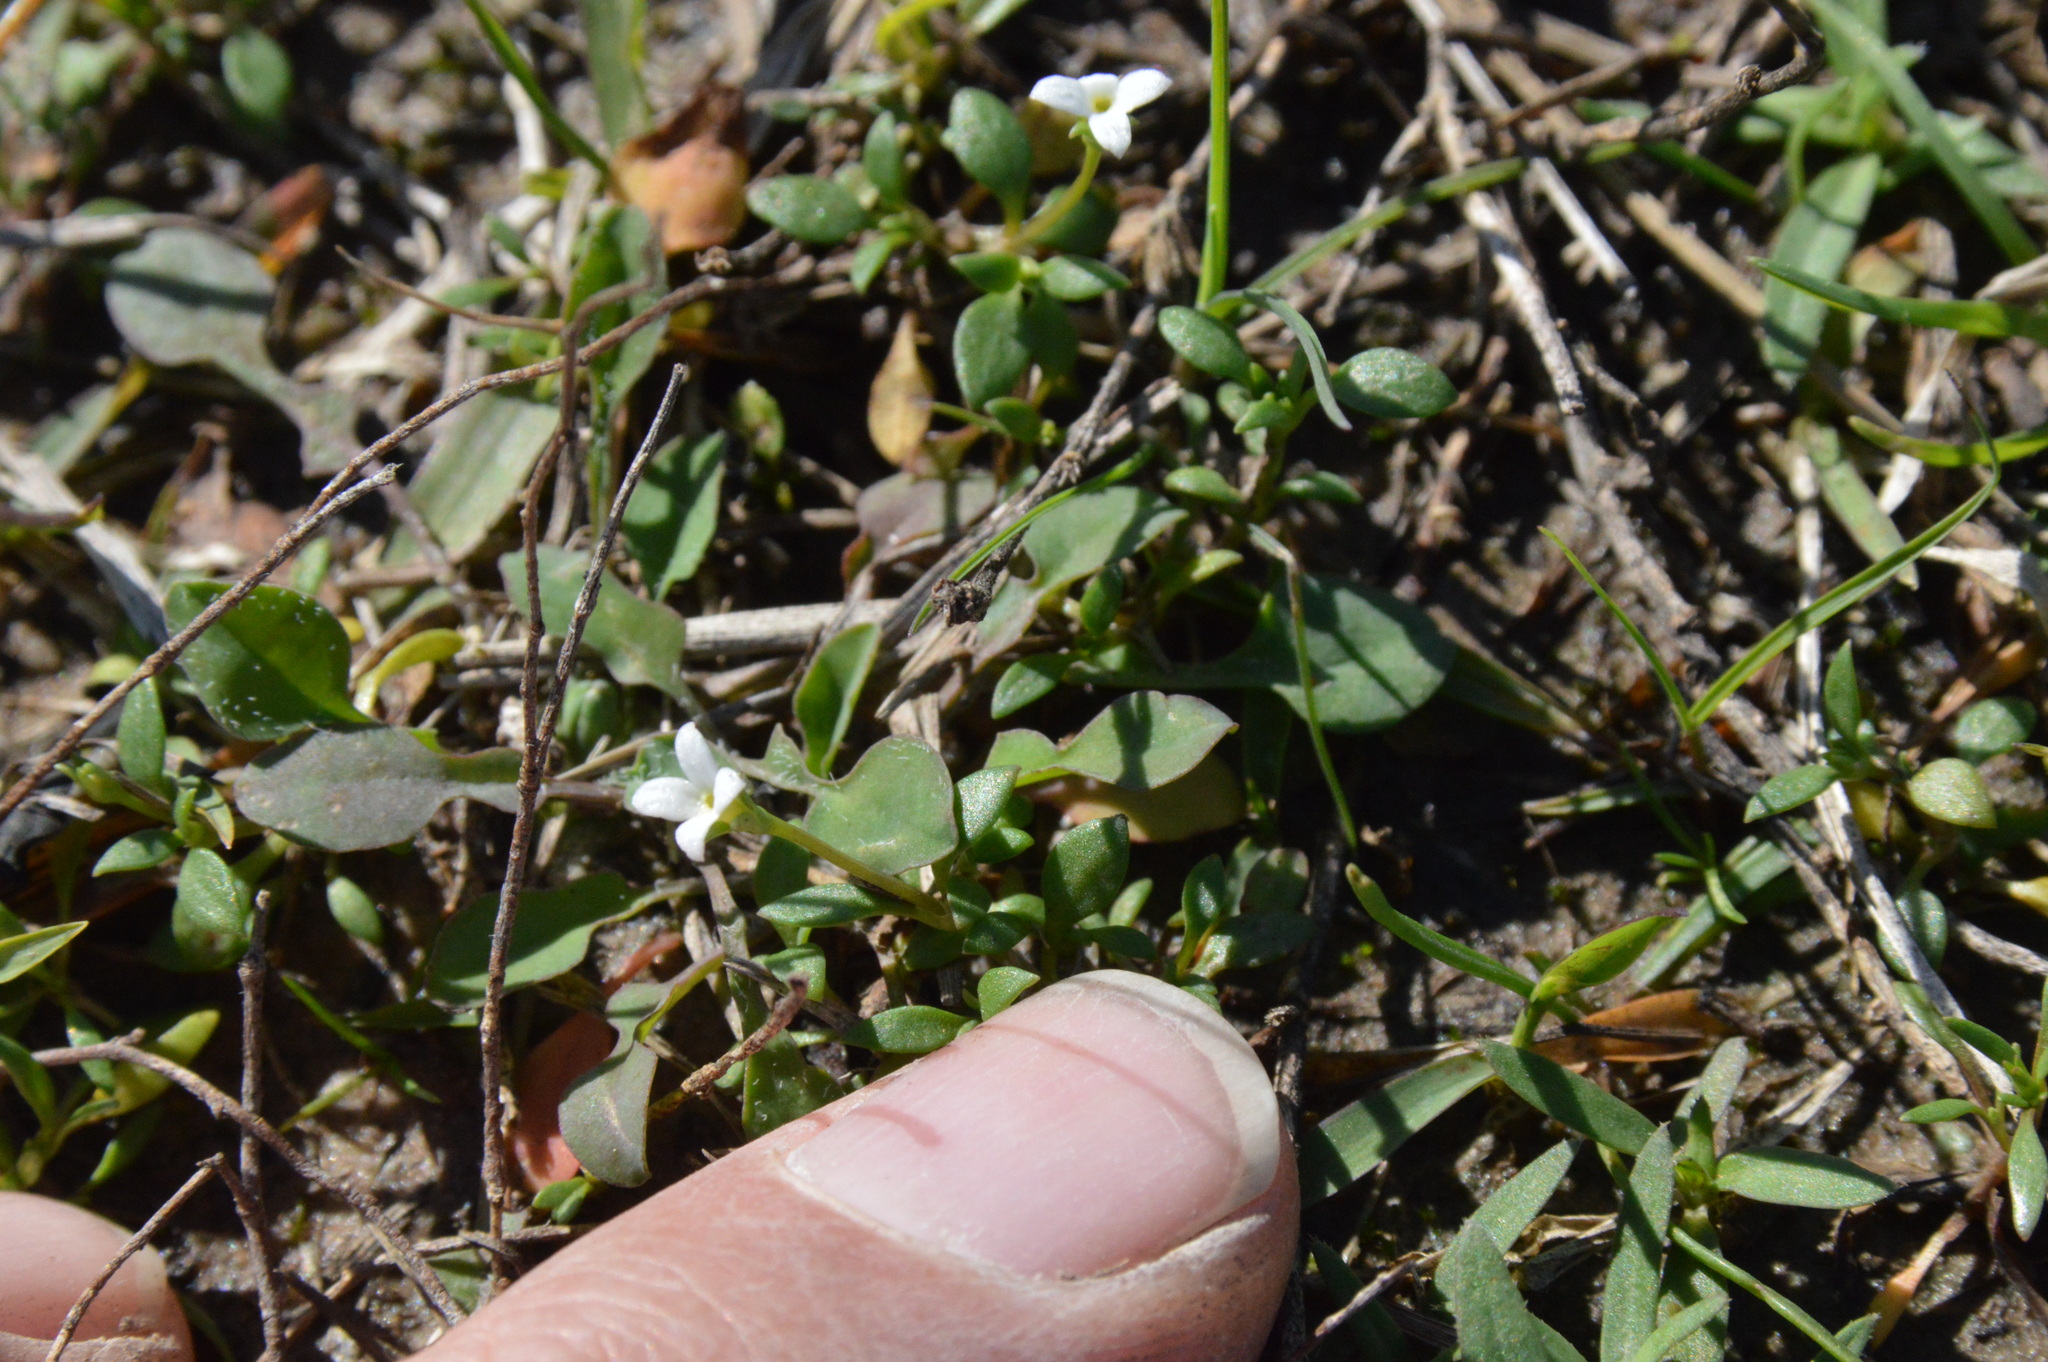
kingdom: Plantae
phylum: Tracheophyta
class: Magnoliopsida
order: Gentianales
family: Rubiaceae
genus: Houstonia
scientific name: Houstonia micrantha
